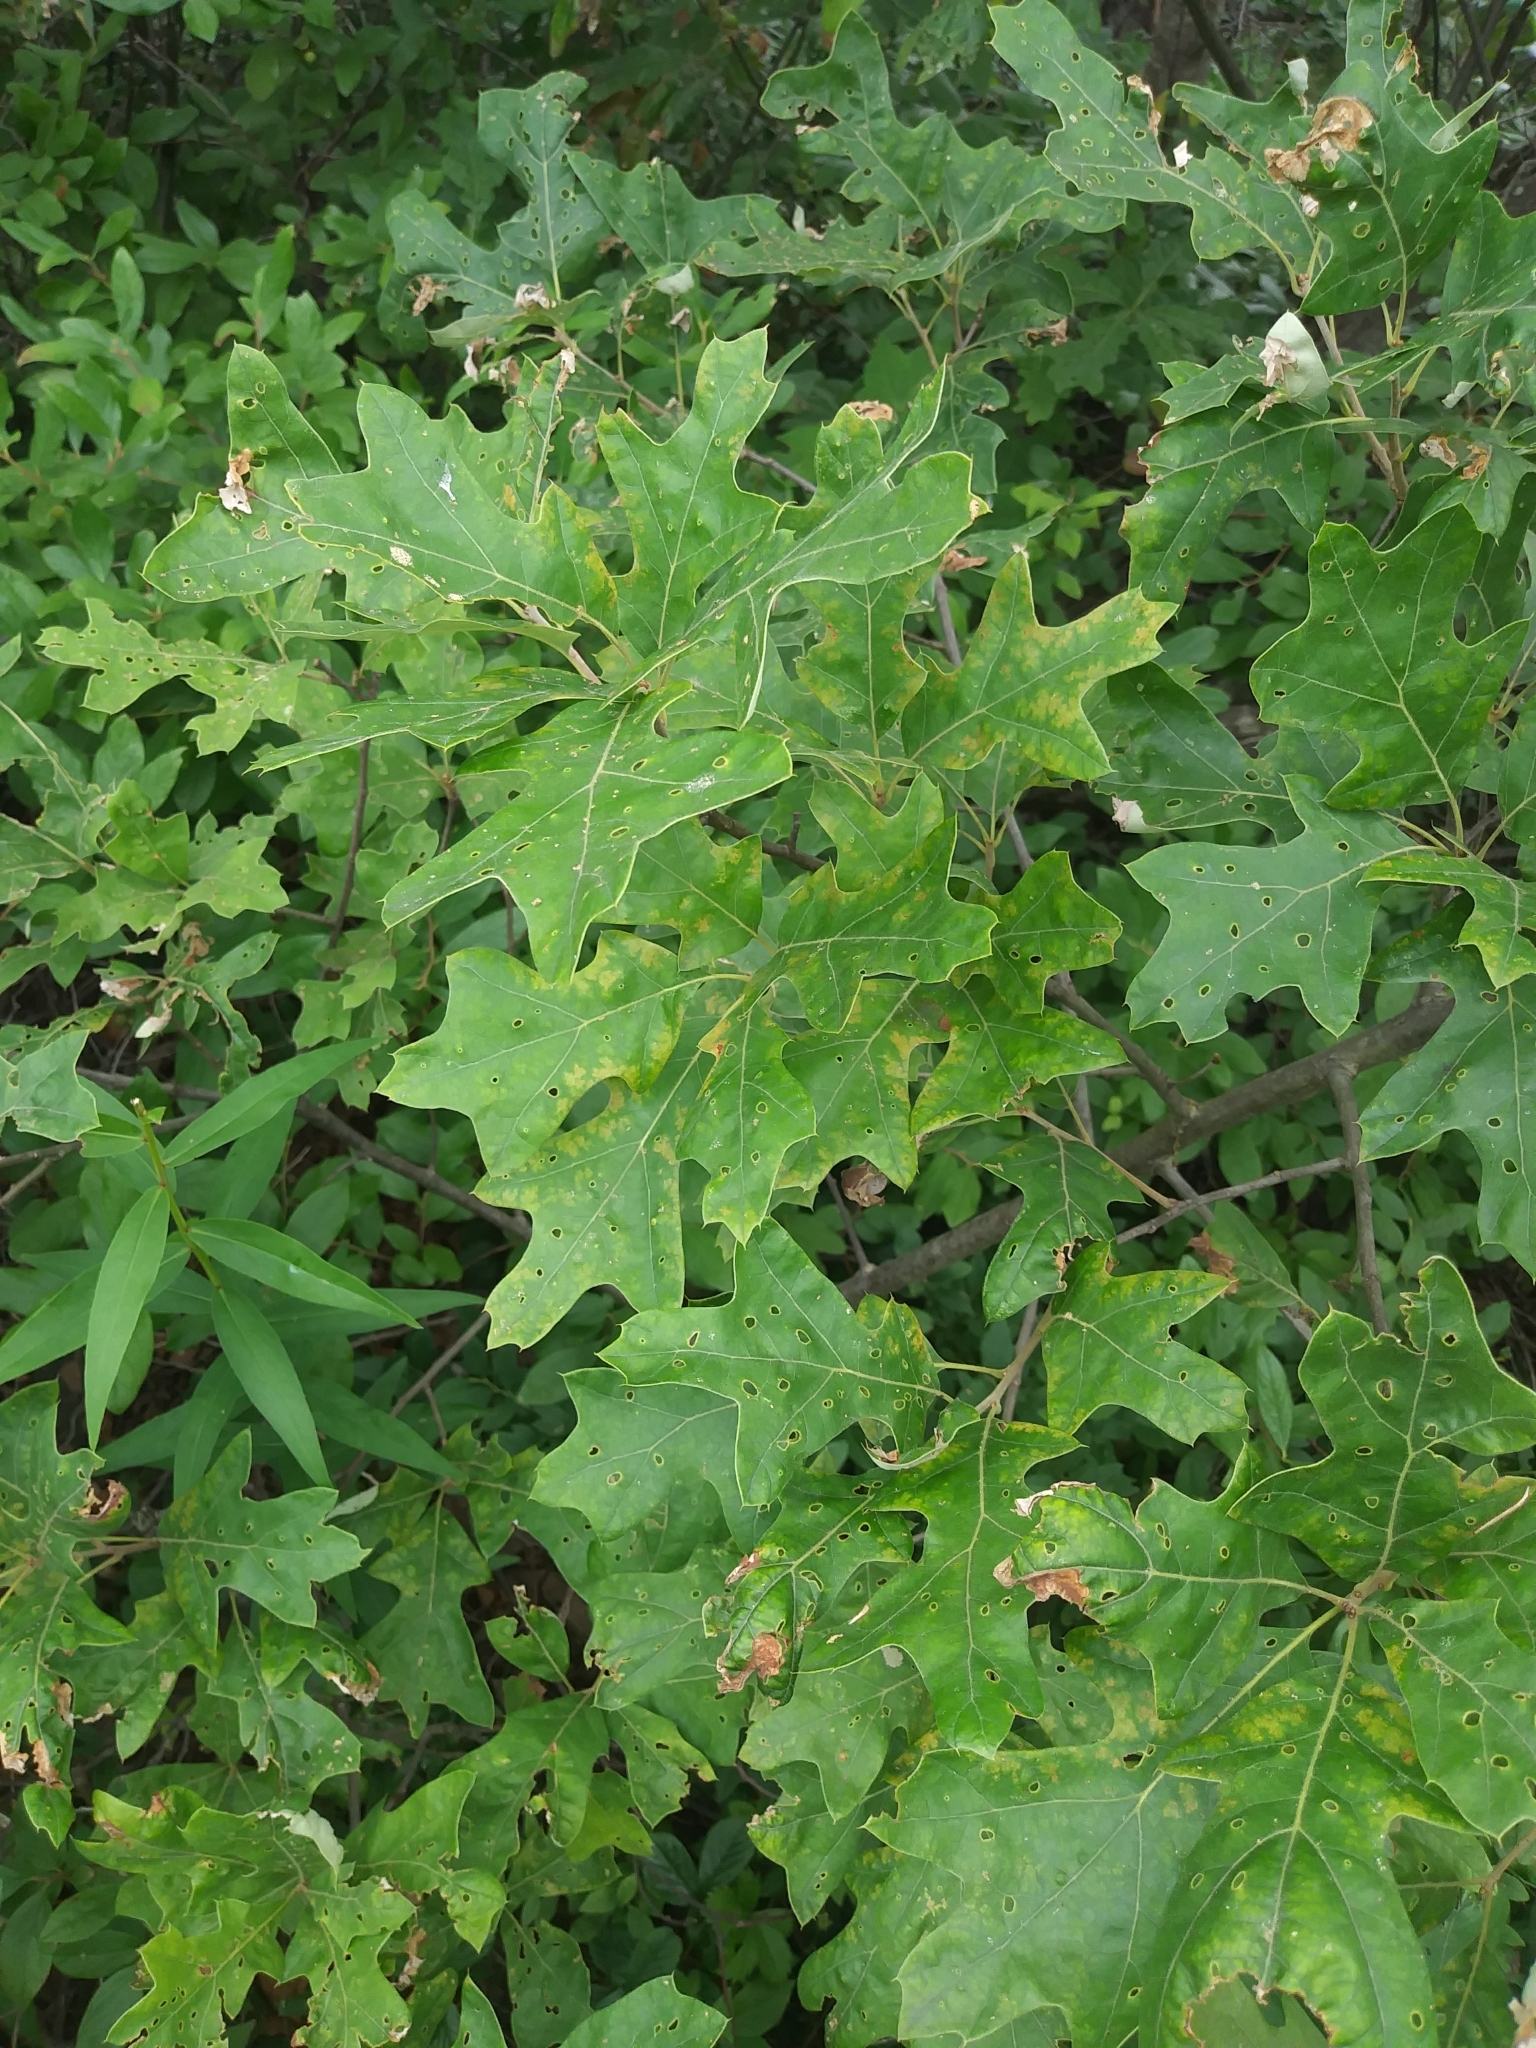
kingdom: Plantae
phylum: Tracheophyta
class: Magnoliopsida
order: Fagales
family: Fagaceae
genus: Quercus
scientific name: Quercus ilicifolia
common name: Bear oak
